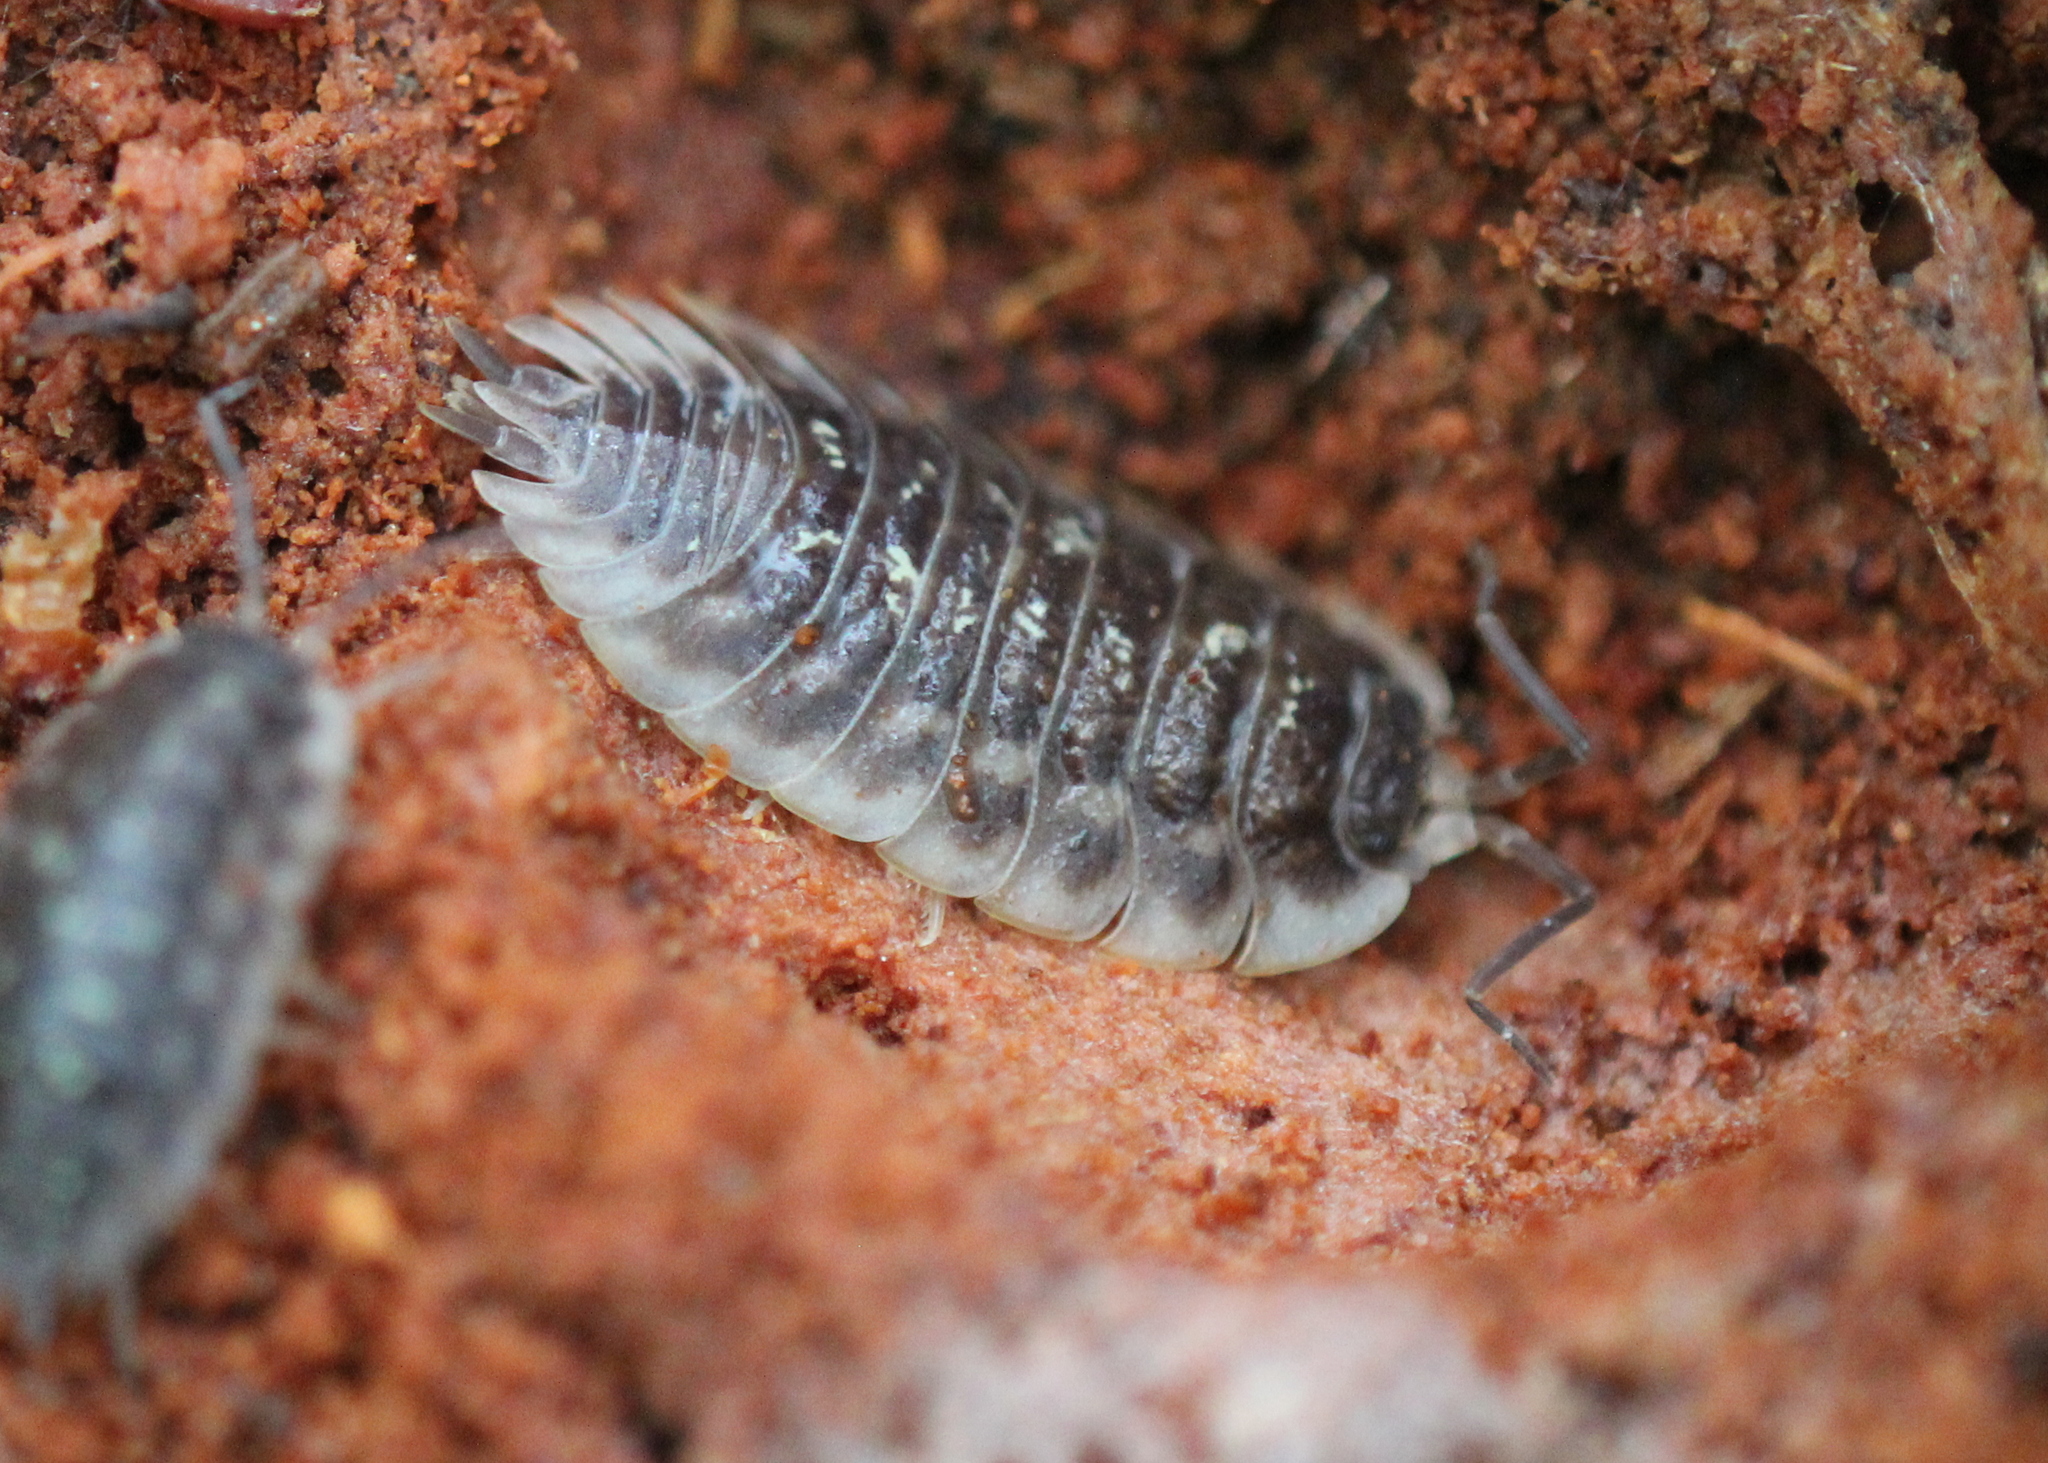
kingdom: Animalia
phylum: Arthropoda
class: Malacostraca
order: Isopoda
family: Oniscidae
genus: Oniscus
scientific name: Oniscus asellus
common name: Common shiny woodlouse
